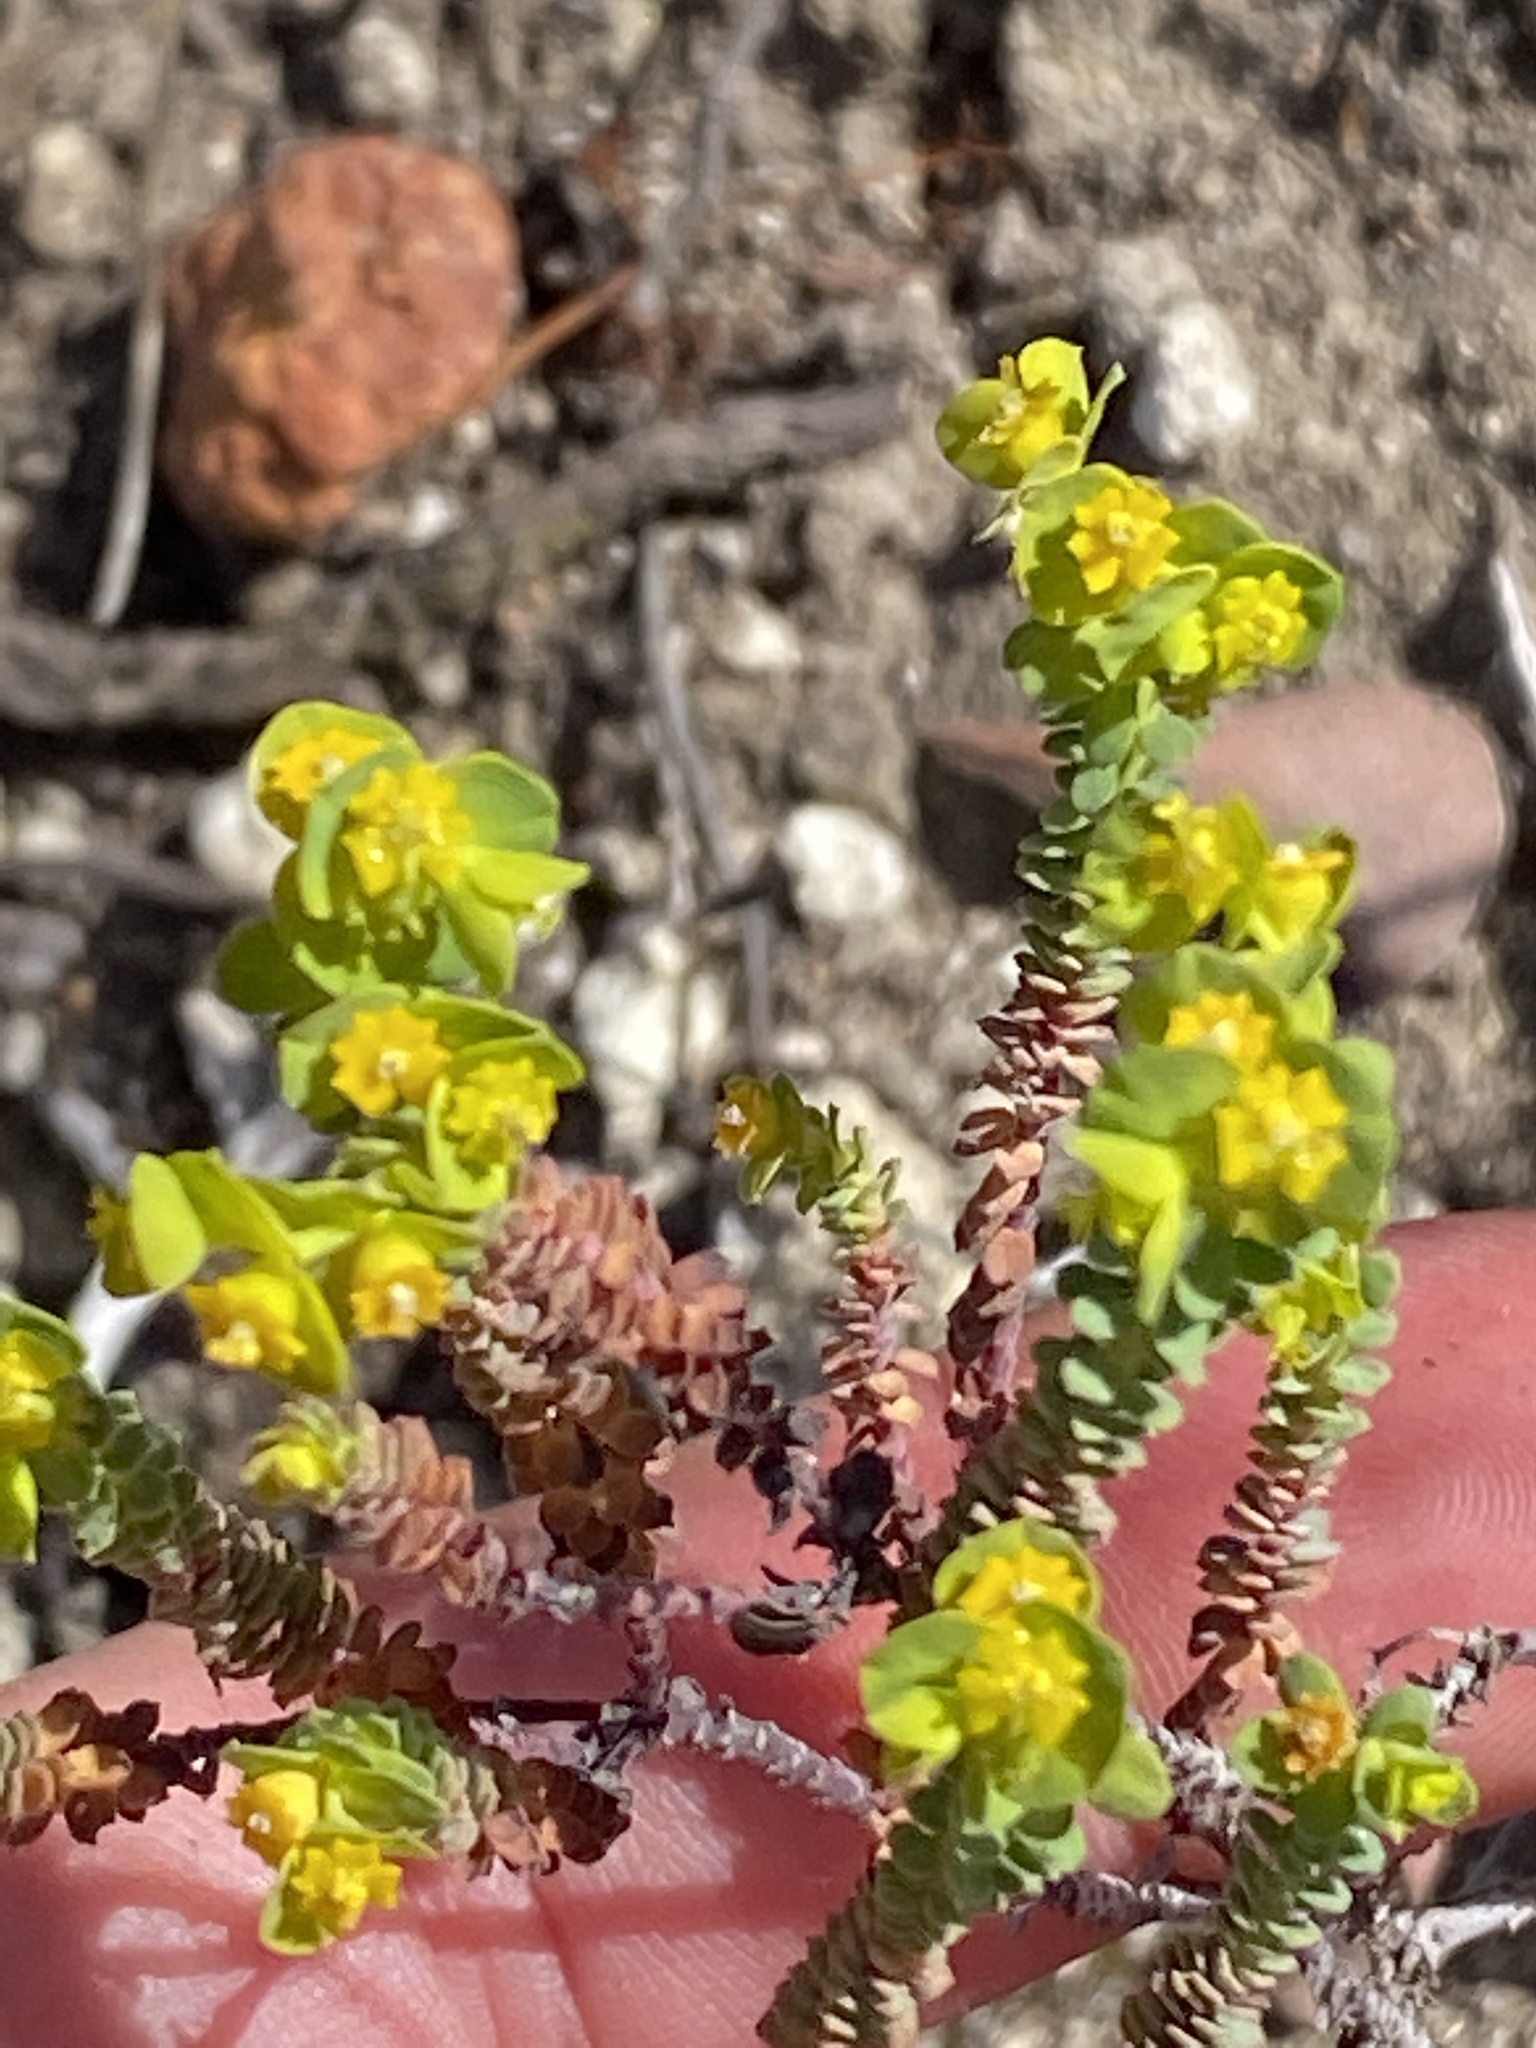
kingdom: Plantae
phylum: Tracheophyta
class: Magnoliopsida
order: Malpighiales
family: Euphorbiaceae
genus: Euphorbia
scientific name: Euphorbia foliosa
